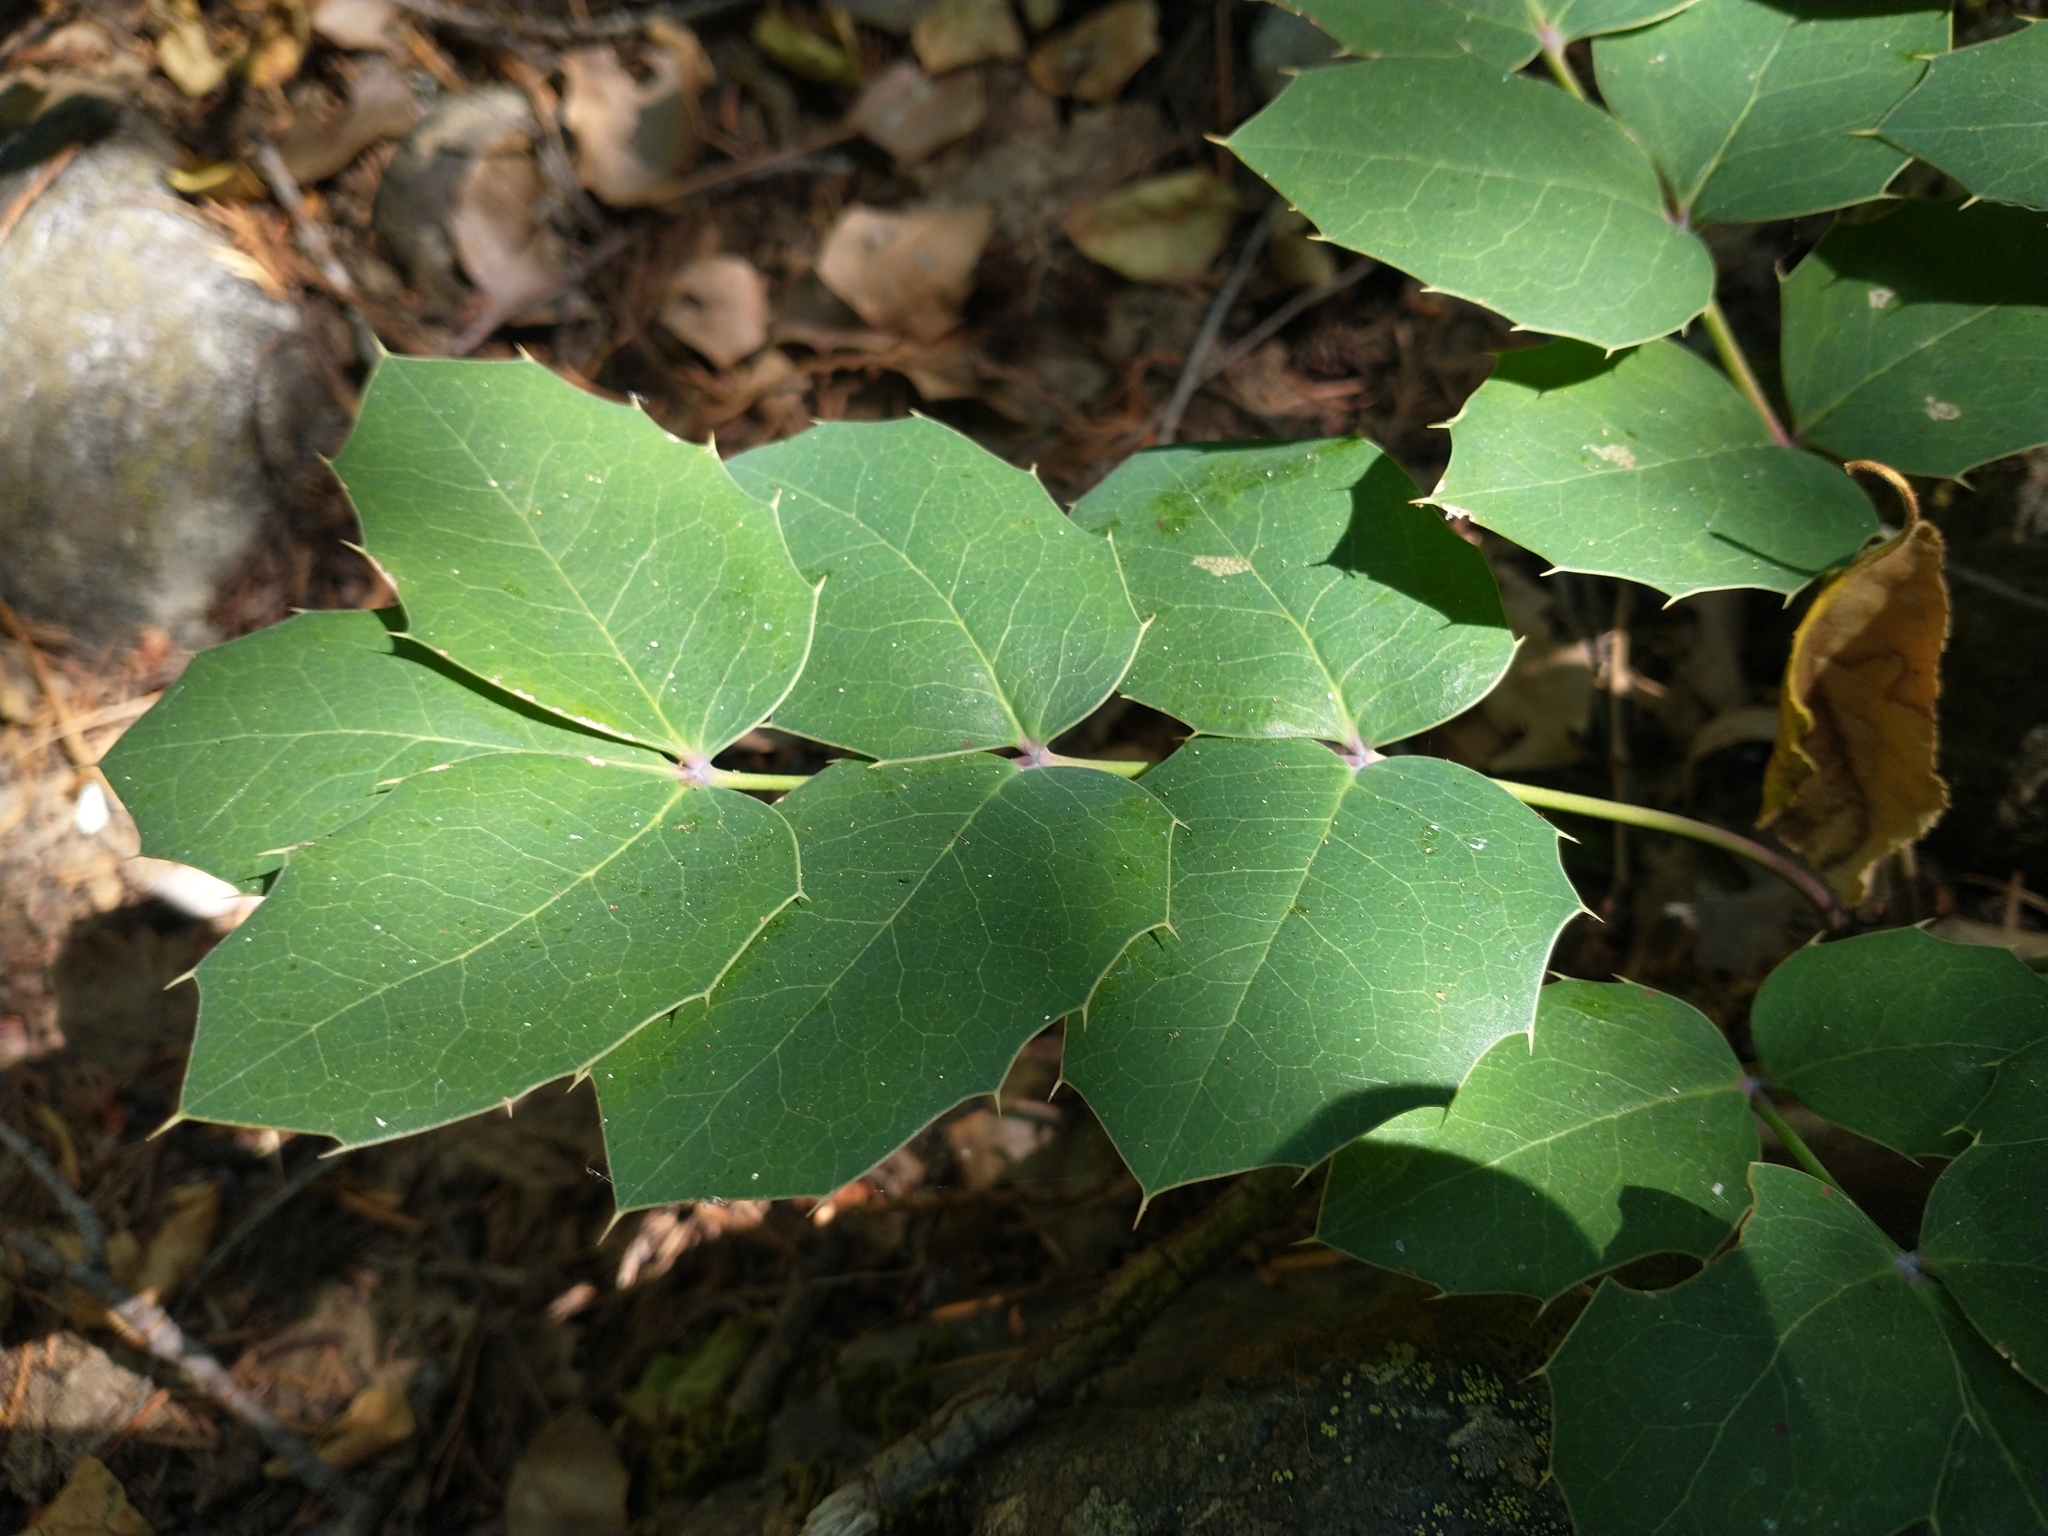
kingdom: Plantae
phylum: Tracheophyta
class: Magnoliopsida
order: Ranunculales
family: Berberidaceae
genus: Mahonia
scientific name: Mahonia repens
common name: Creeping oregon-grape
